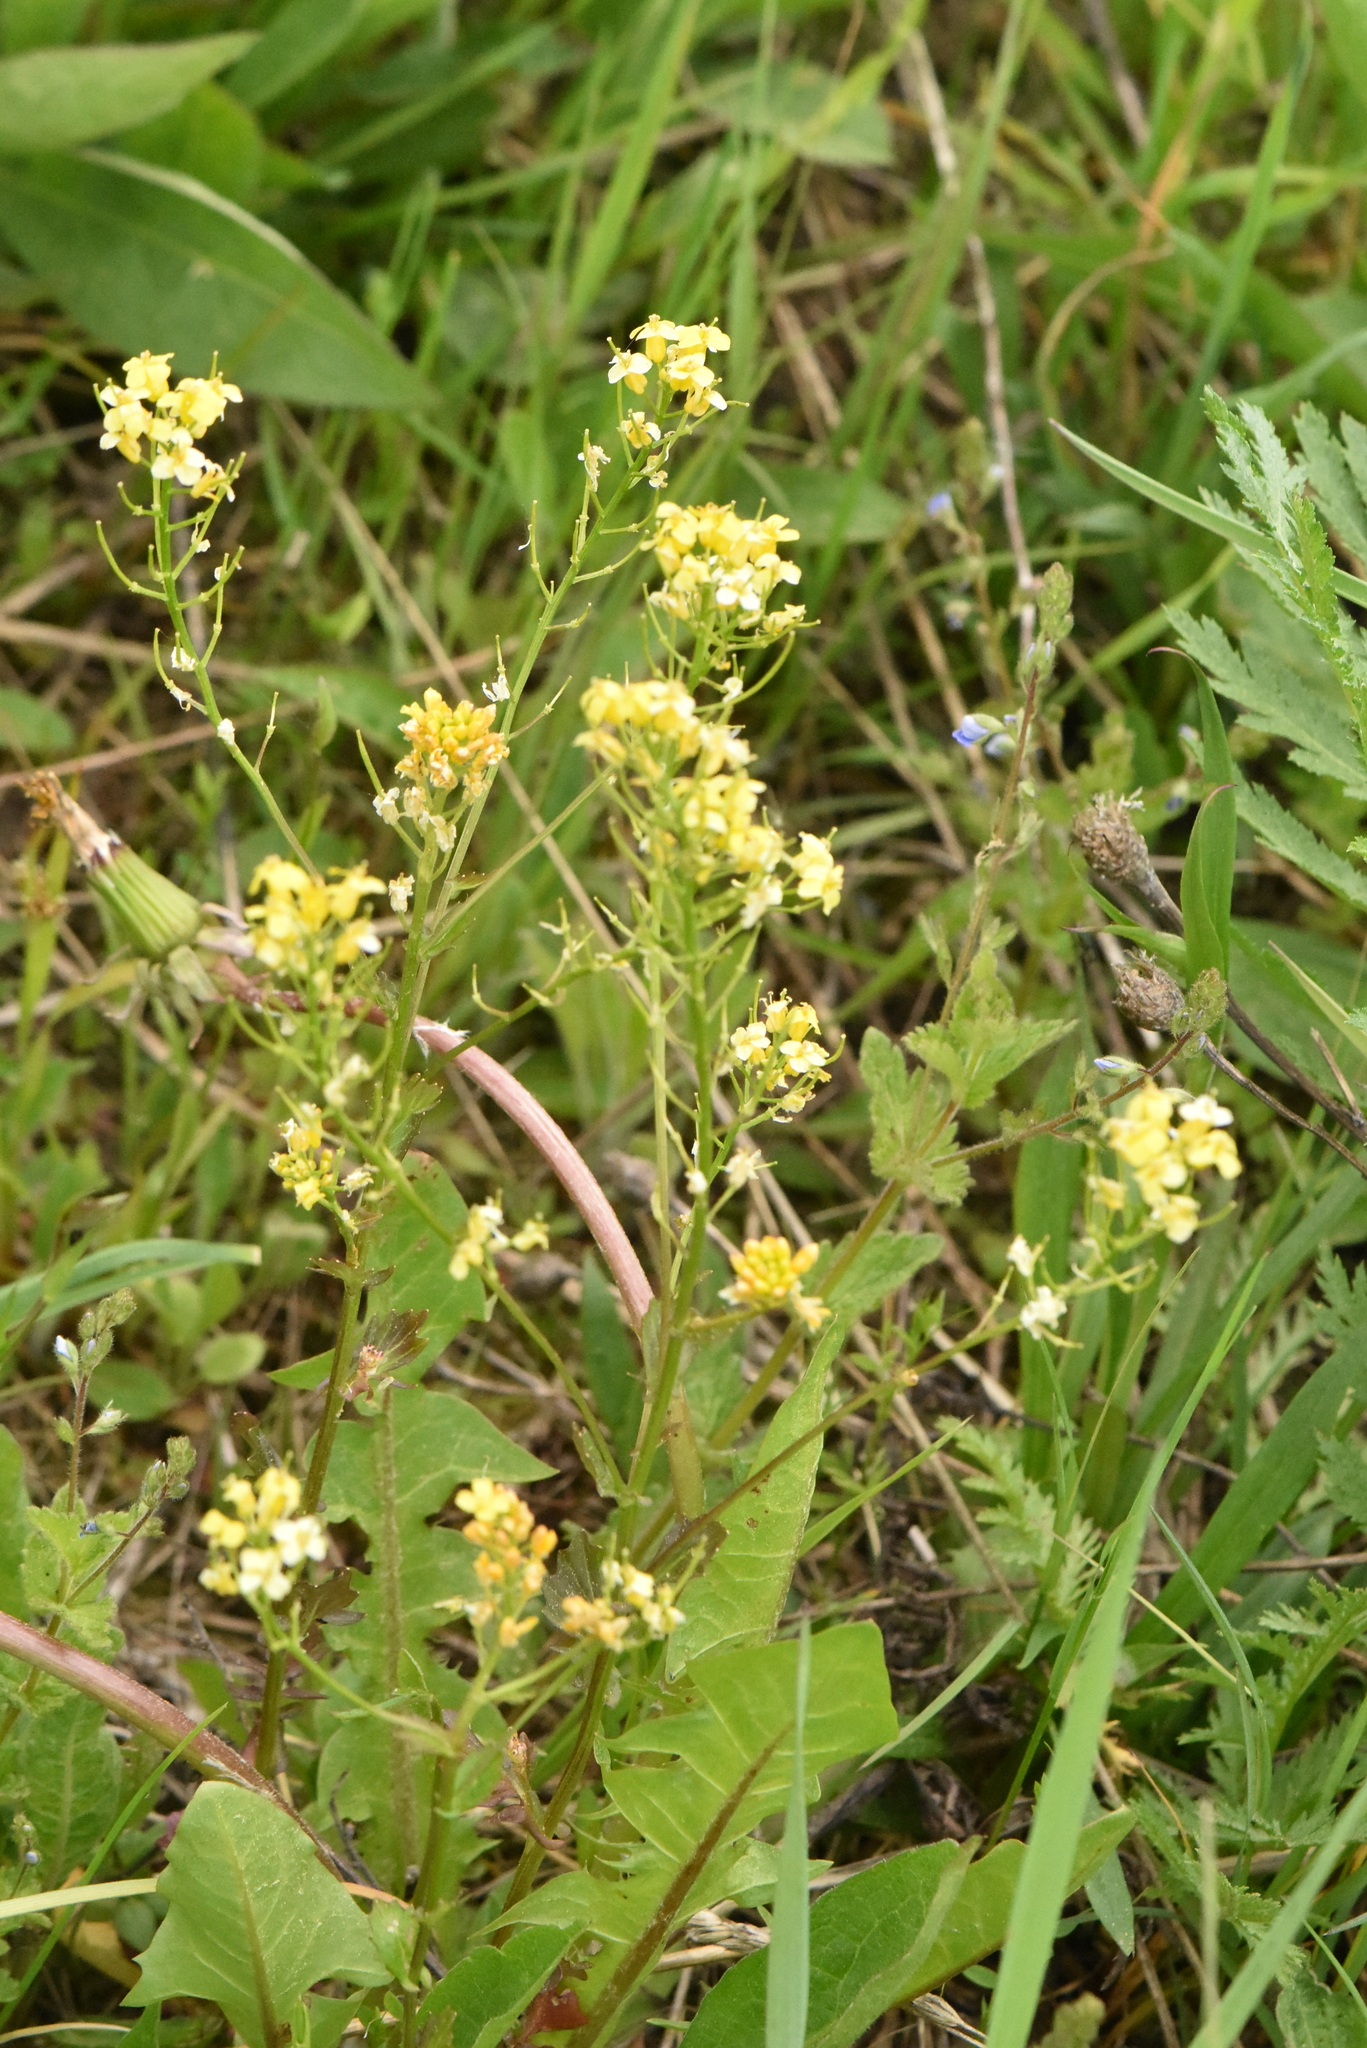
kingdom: Plantae
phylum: Tracheophyta
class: Magnoliopsida
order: Brassicales
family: Brassicaceae
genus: Barbarea
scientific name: Barbarea vulgaris
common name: Cressy-greens
